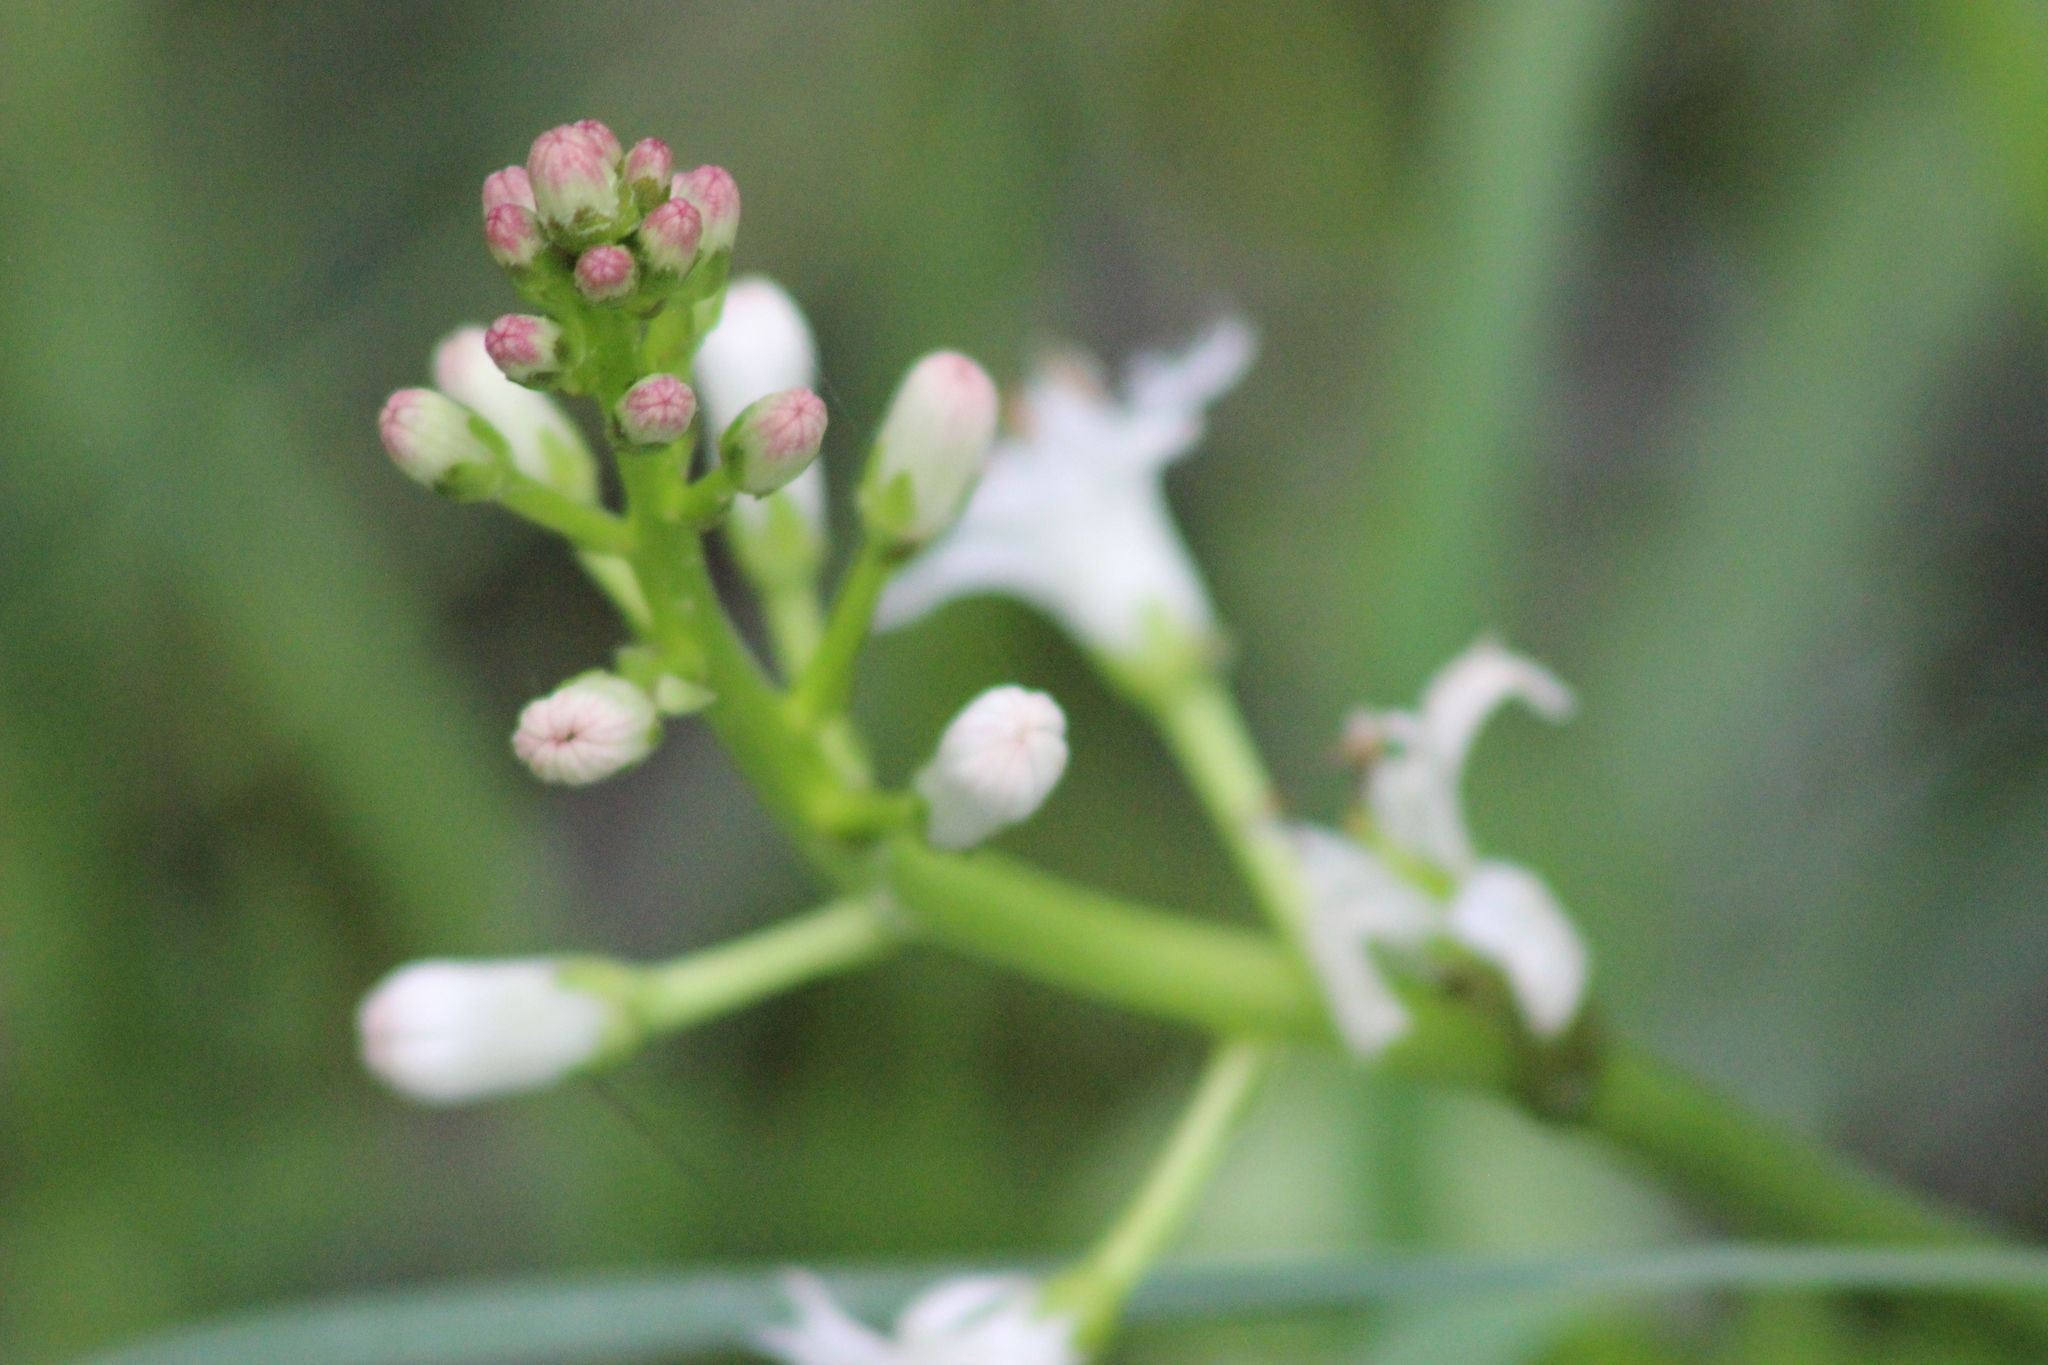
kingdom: Plantae
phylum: Tracheophyta
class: Magnoliopsida
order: Asterales
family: Menyanthaceae
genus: Menyanthes
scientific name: Menyanthes trifoliata
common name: Bogbean
